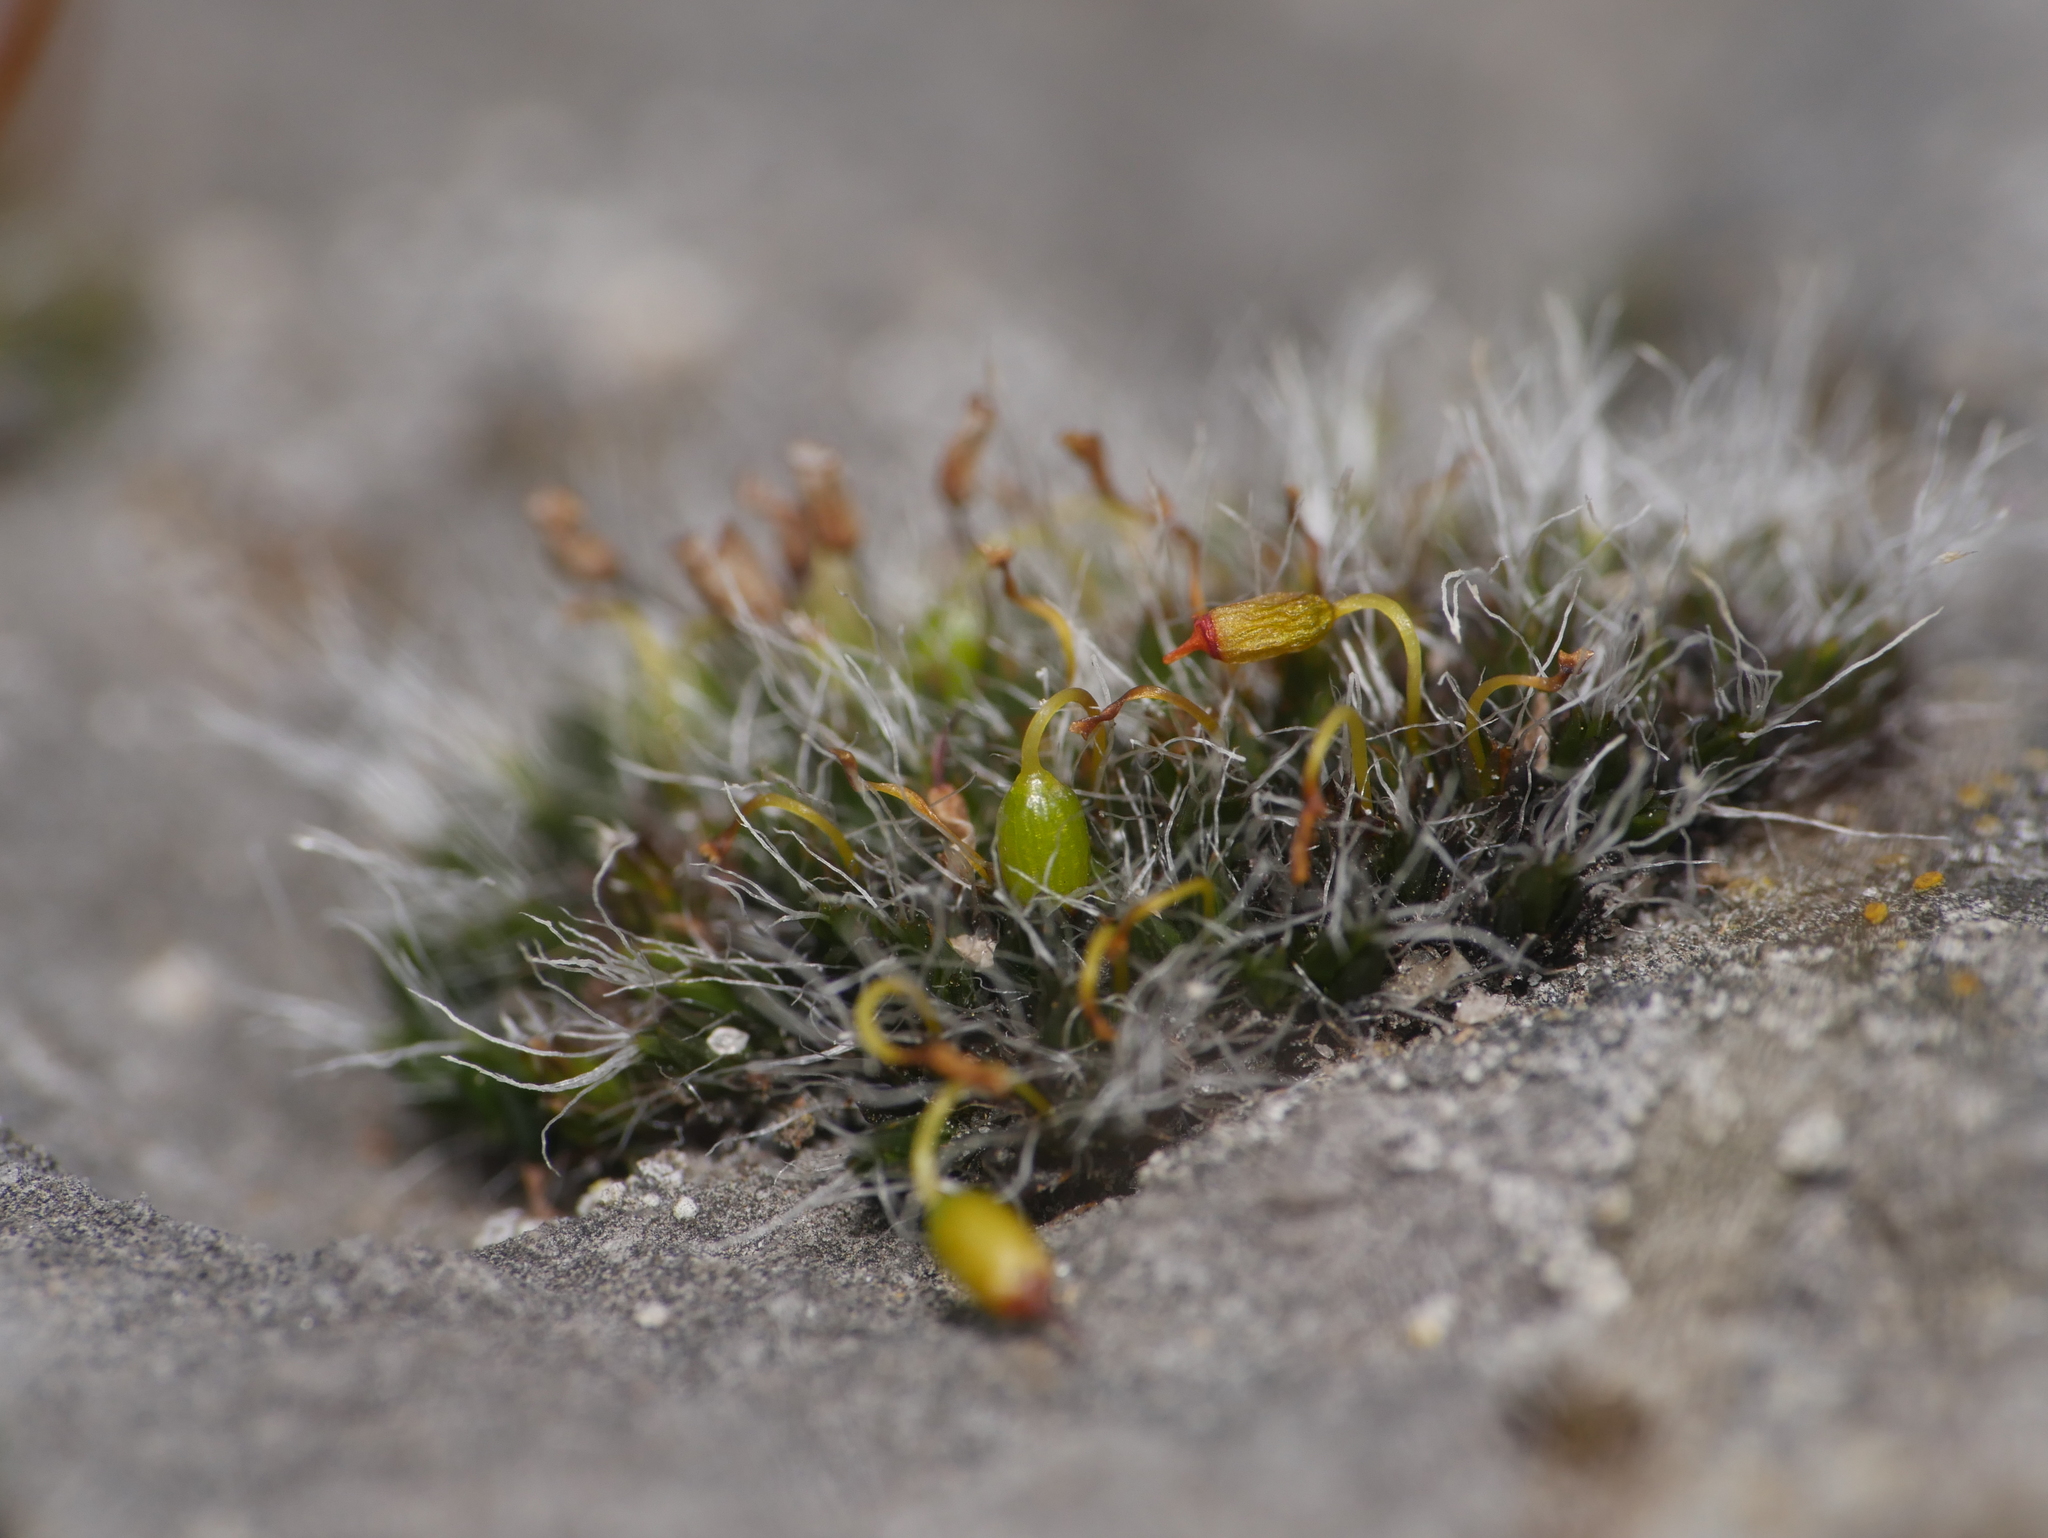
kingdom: Plantae
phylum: Bryophyta
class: Bryopsida
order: Grimmiales
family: Grimmiaceae
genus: Grimmia
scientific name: Grimmia pulvinata
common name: Grey-cushioned grimmia
